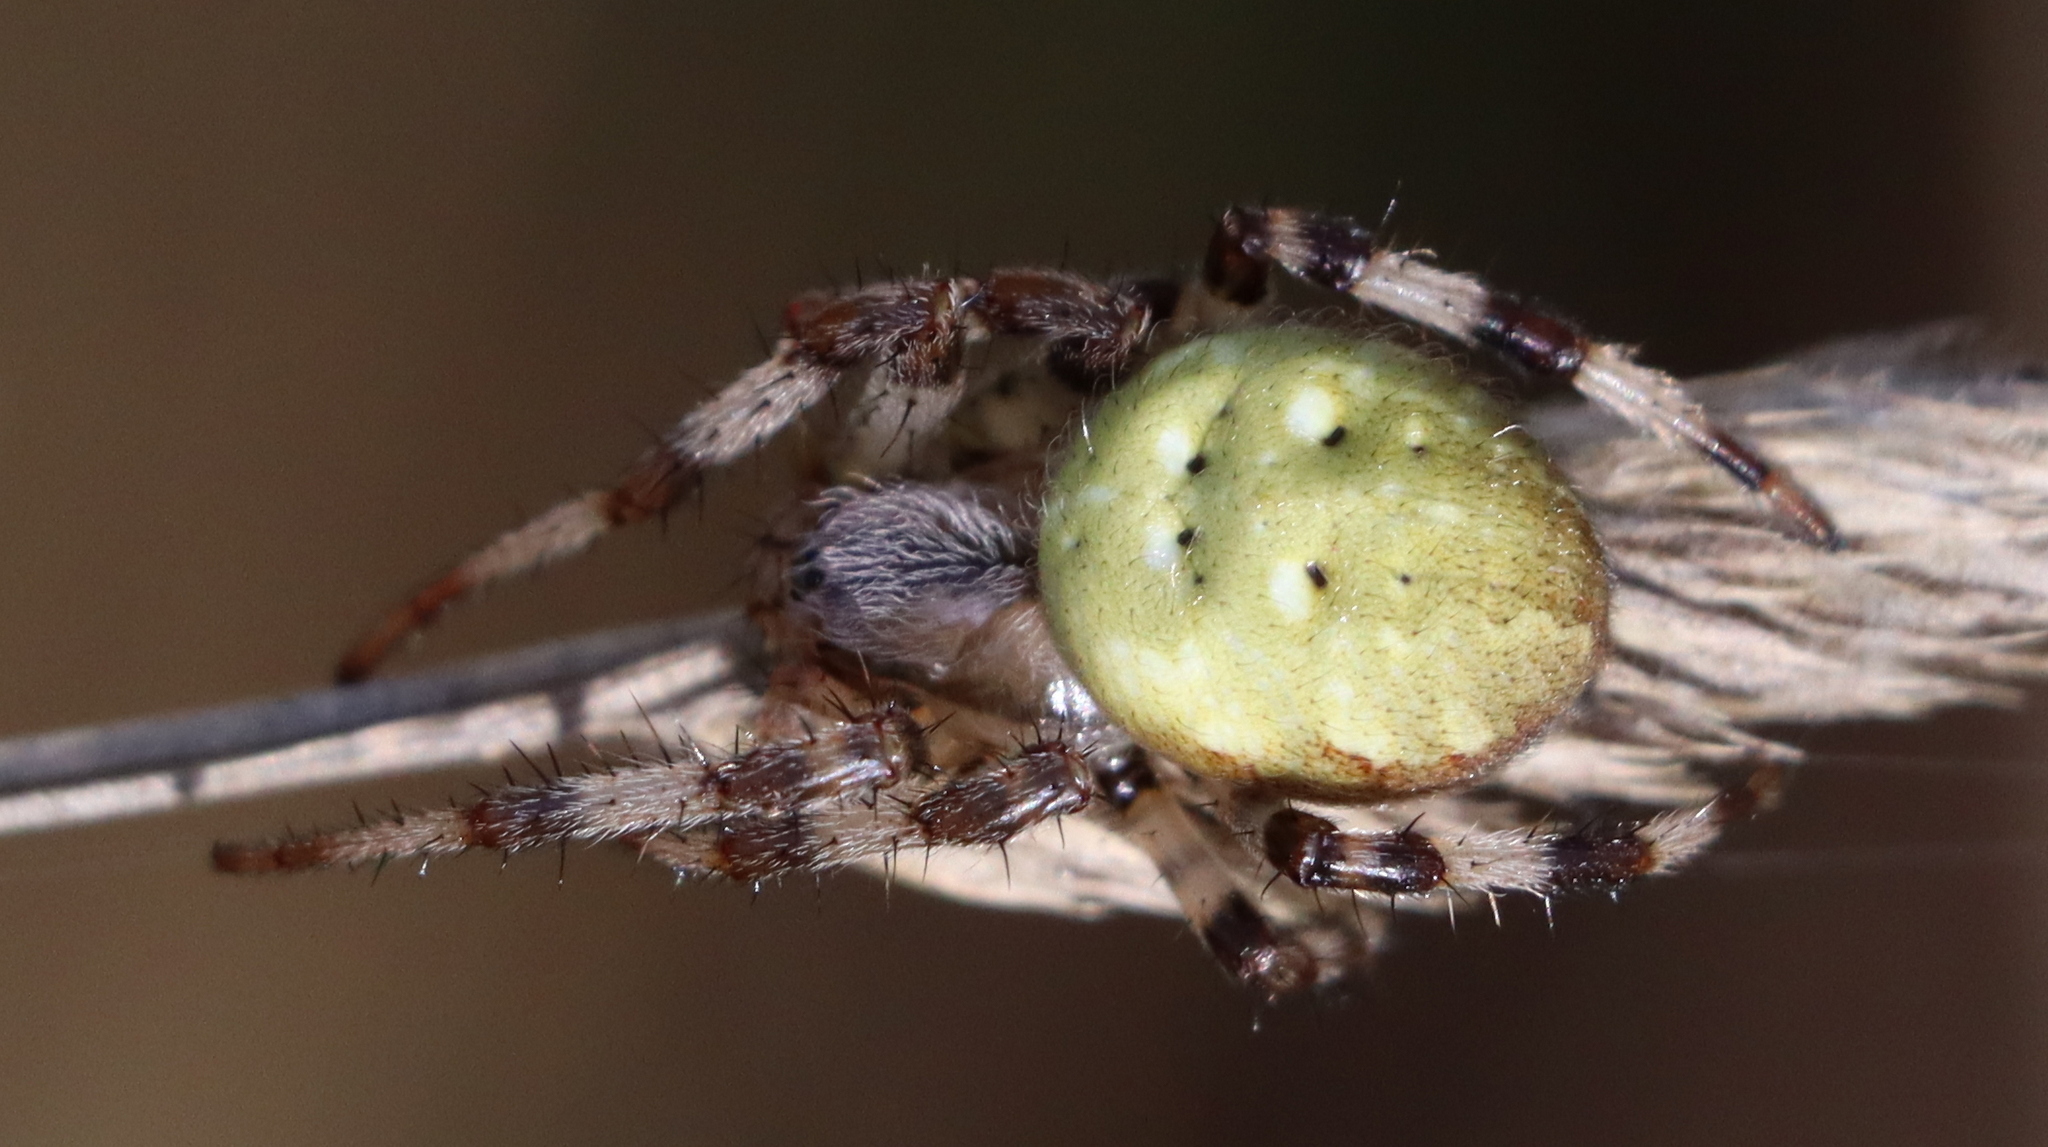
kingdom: Animalia
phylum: Arthropoda
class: Arachnida
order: Araneae
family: Araneidae
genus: Araneus
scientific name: Araneus quadratus
